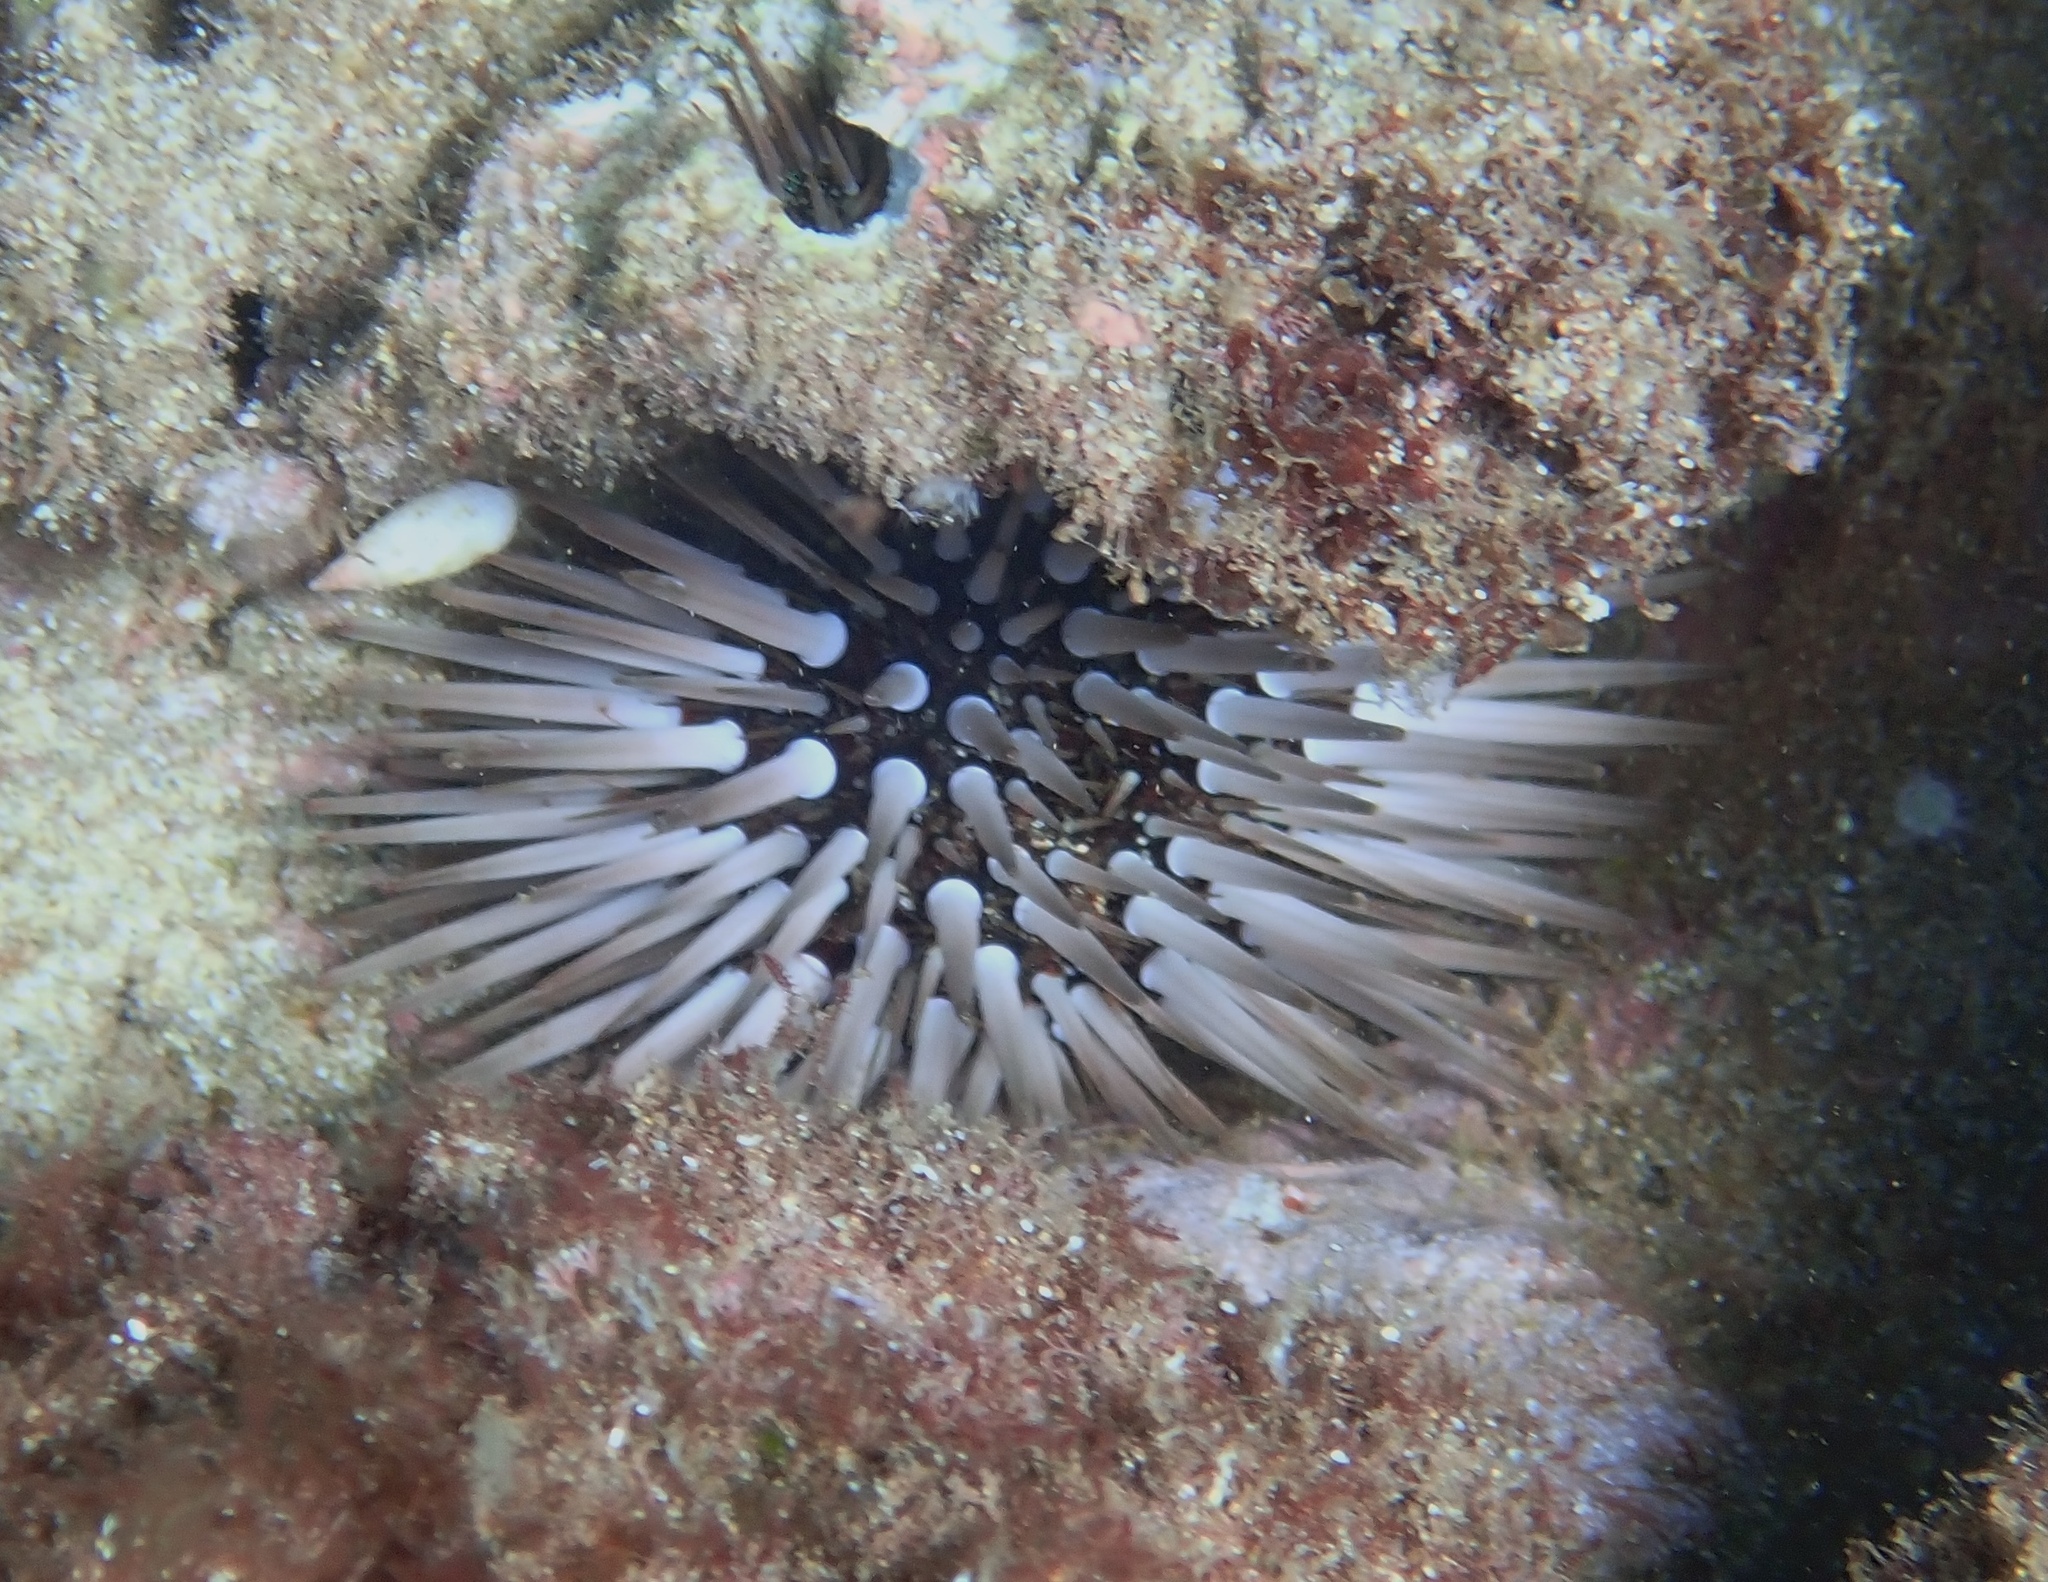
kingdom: Animalia
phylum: Echinodermata
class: Echinoidea
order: Camarodonta
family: Echinometridae
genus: Echinometra
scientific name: Echinometra mathaei
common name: Rock-boring urchin
